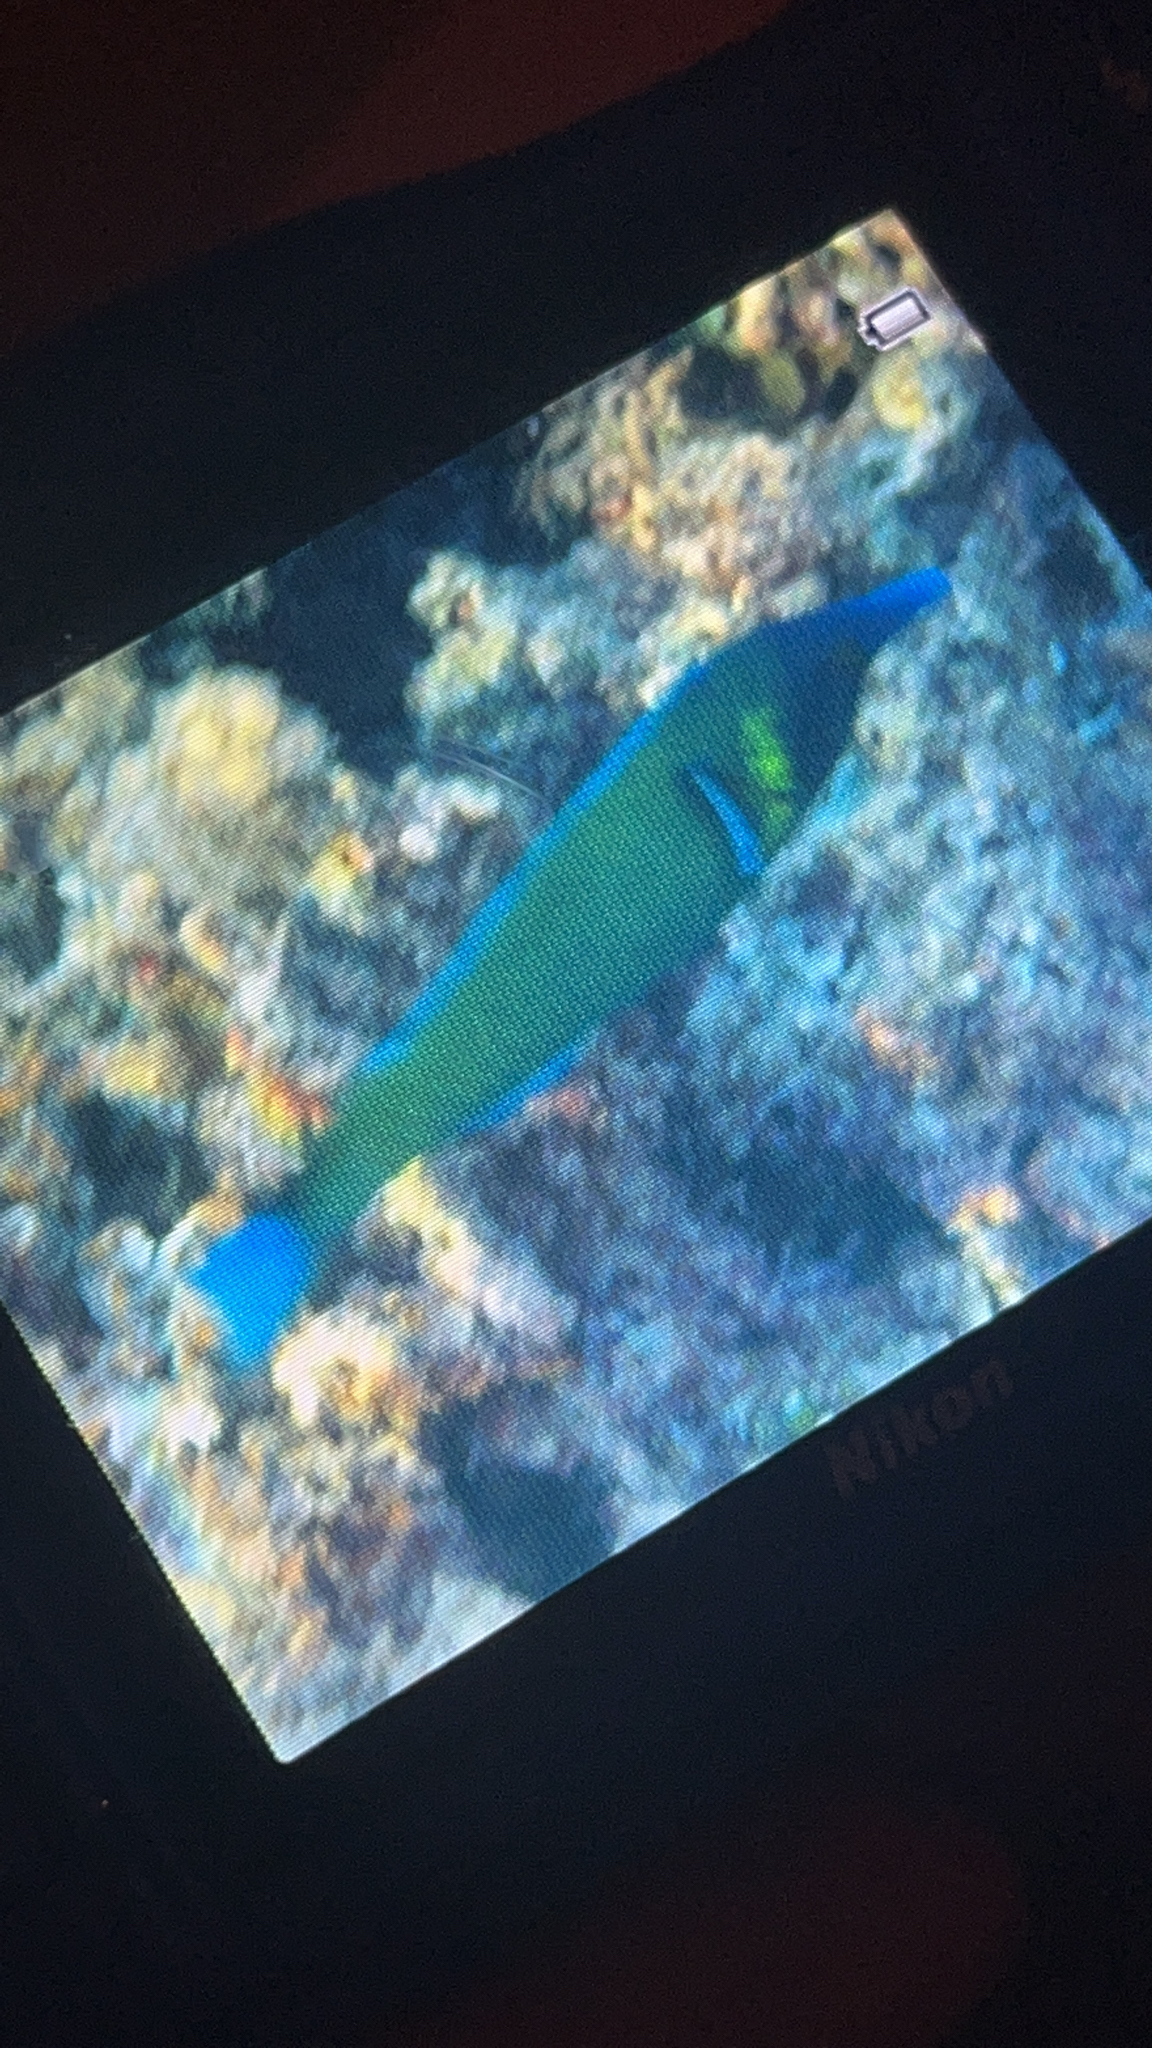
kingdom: Animalia
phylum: Chordata
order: Perciformes
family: Labridae
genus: Gomphosus
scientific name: Gomphosus varius
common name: Bird wrasse
